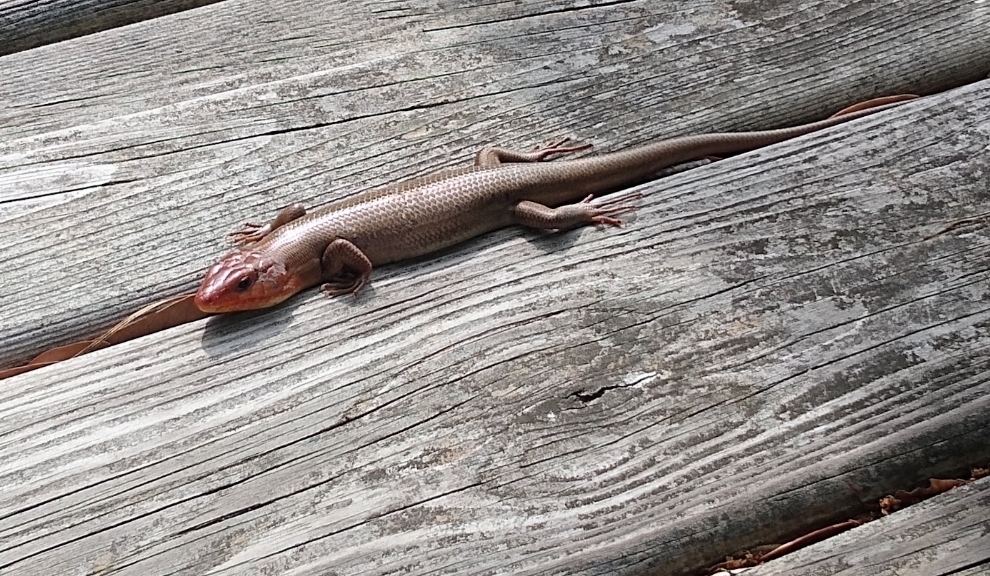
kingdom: Animalia
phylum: Chordata
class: Squamata
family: Scincidae
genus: Plestiodon
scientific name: Plestiodon laticeps
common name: Broadhead skink
